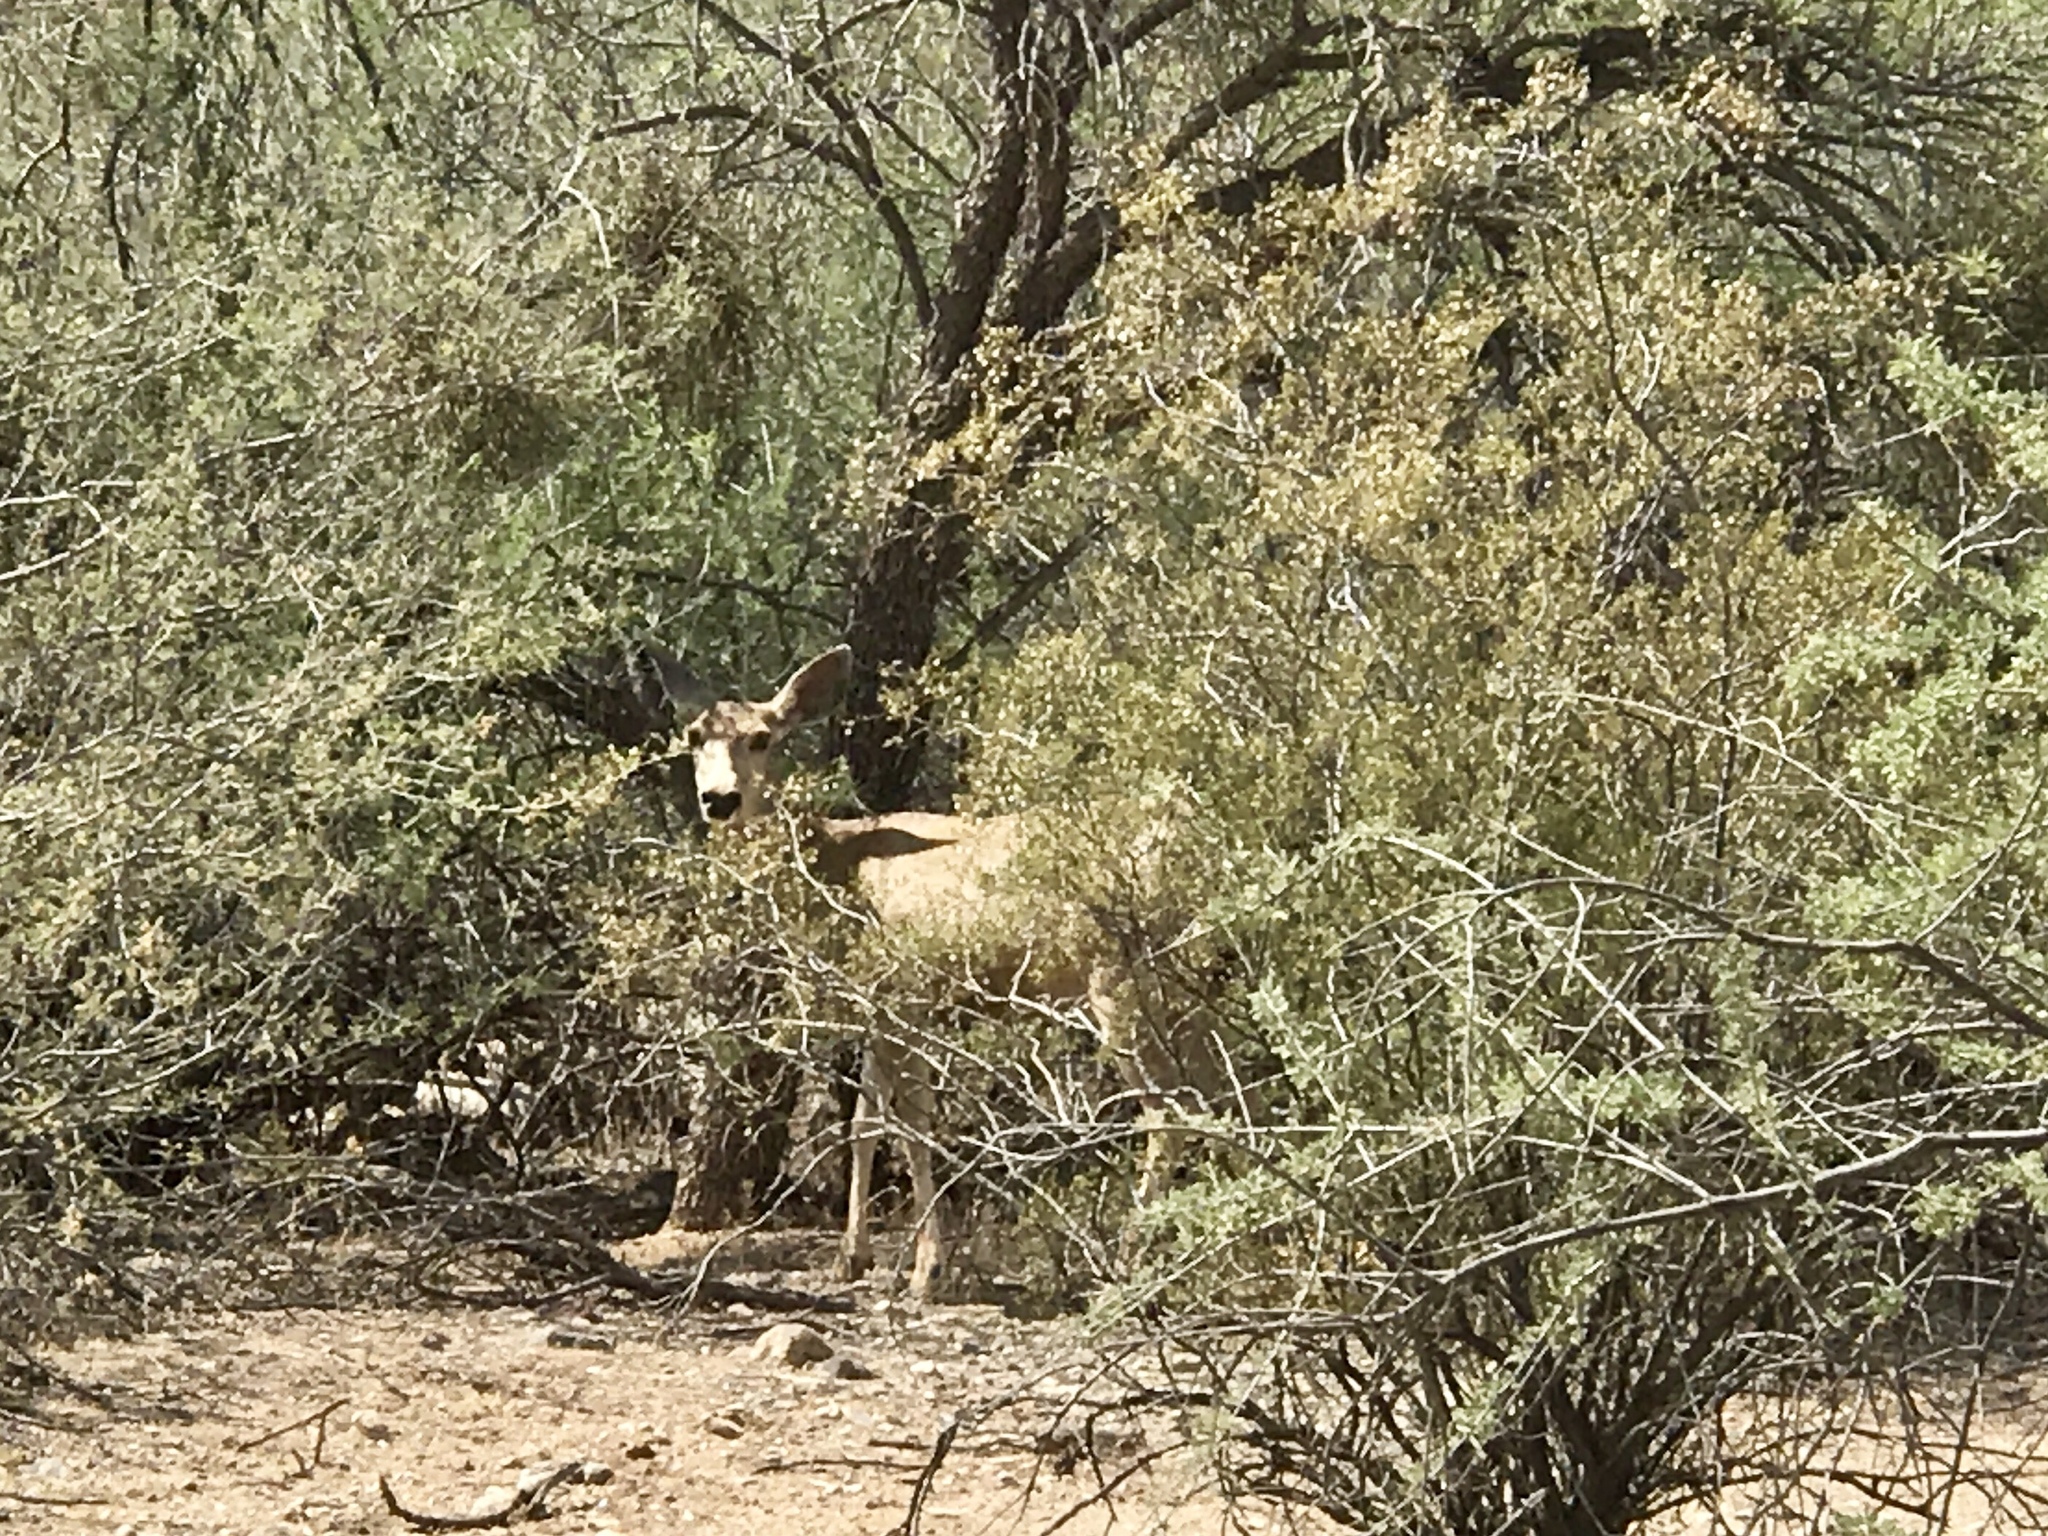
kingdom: Animalia
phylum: Chordata
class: Mammalia
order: Artiodactyla
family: Cervidae
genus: Odocoileus
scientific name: Odocoileus hemionus
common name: Mule deer
